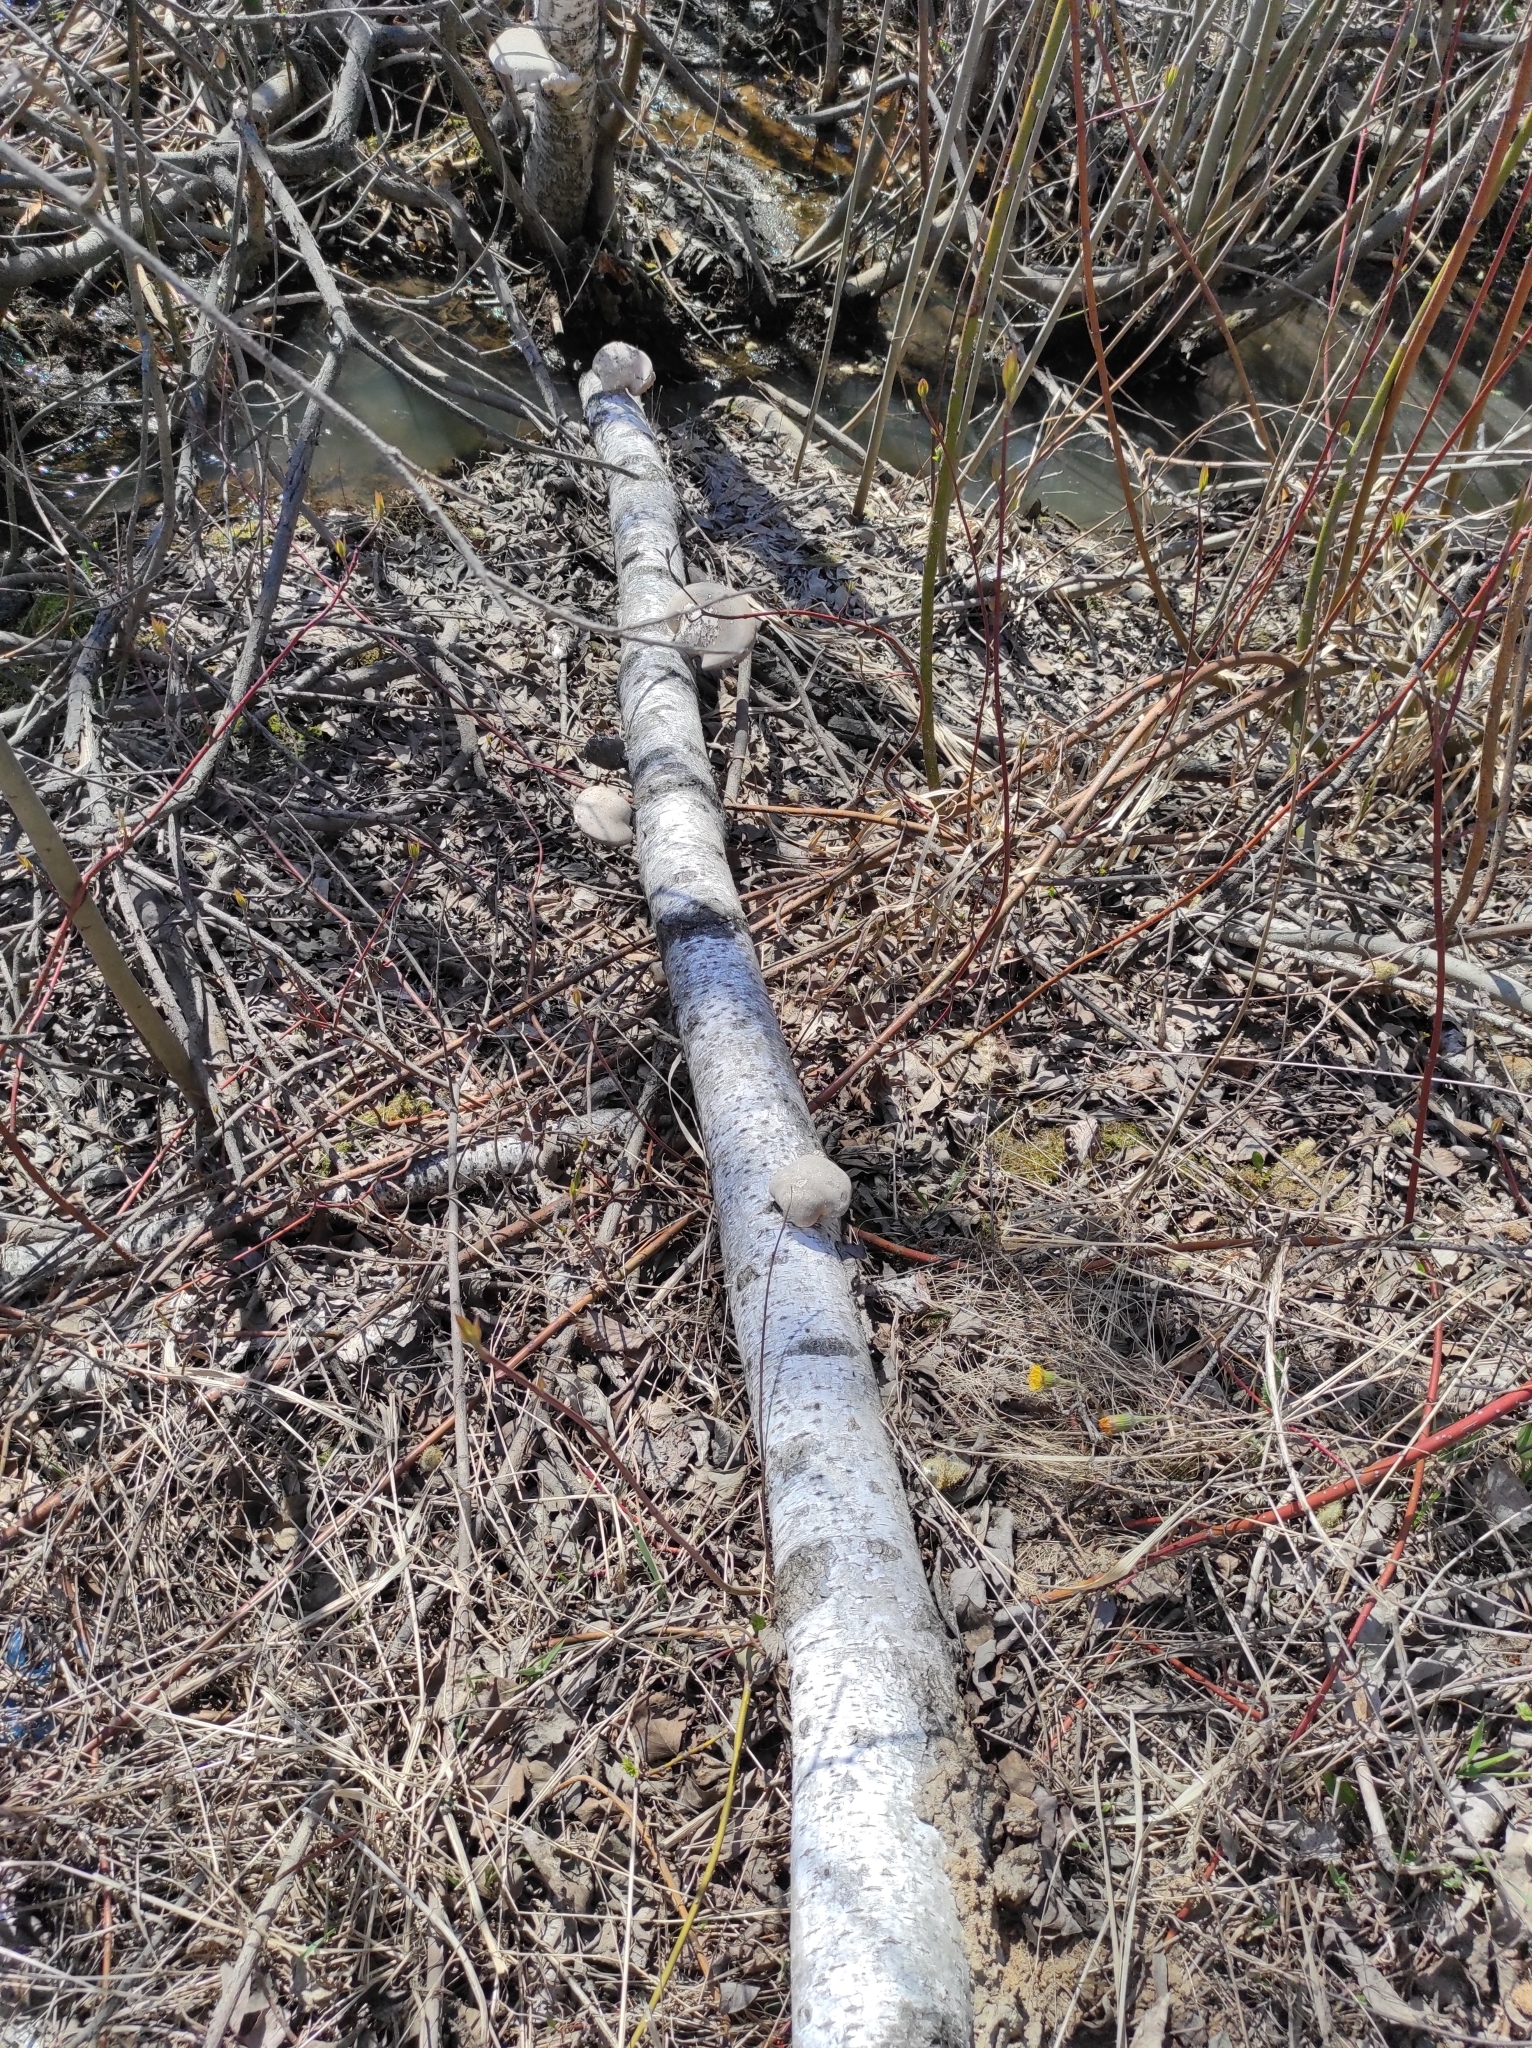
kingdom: Fungi
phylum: Basidiomycota
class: Agaricomycetes
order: Polyporales
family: Fomitopsidaceae
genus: Fomitopsis
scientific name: Fomitopsis betulina
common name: Birch polypore
